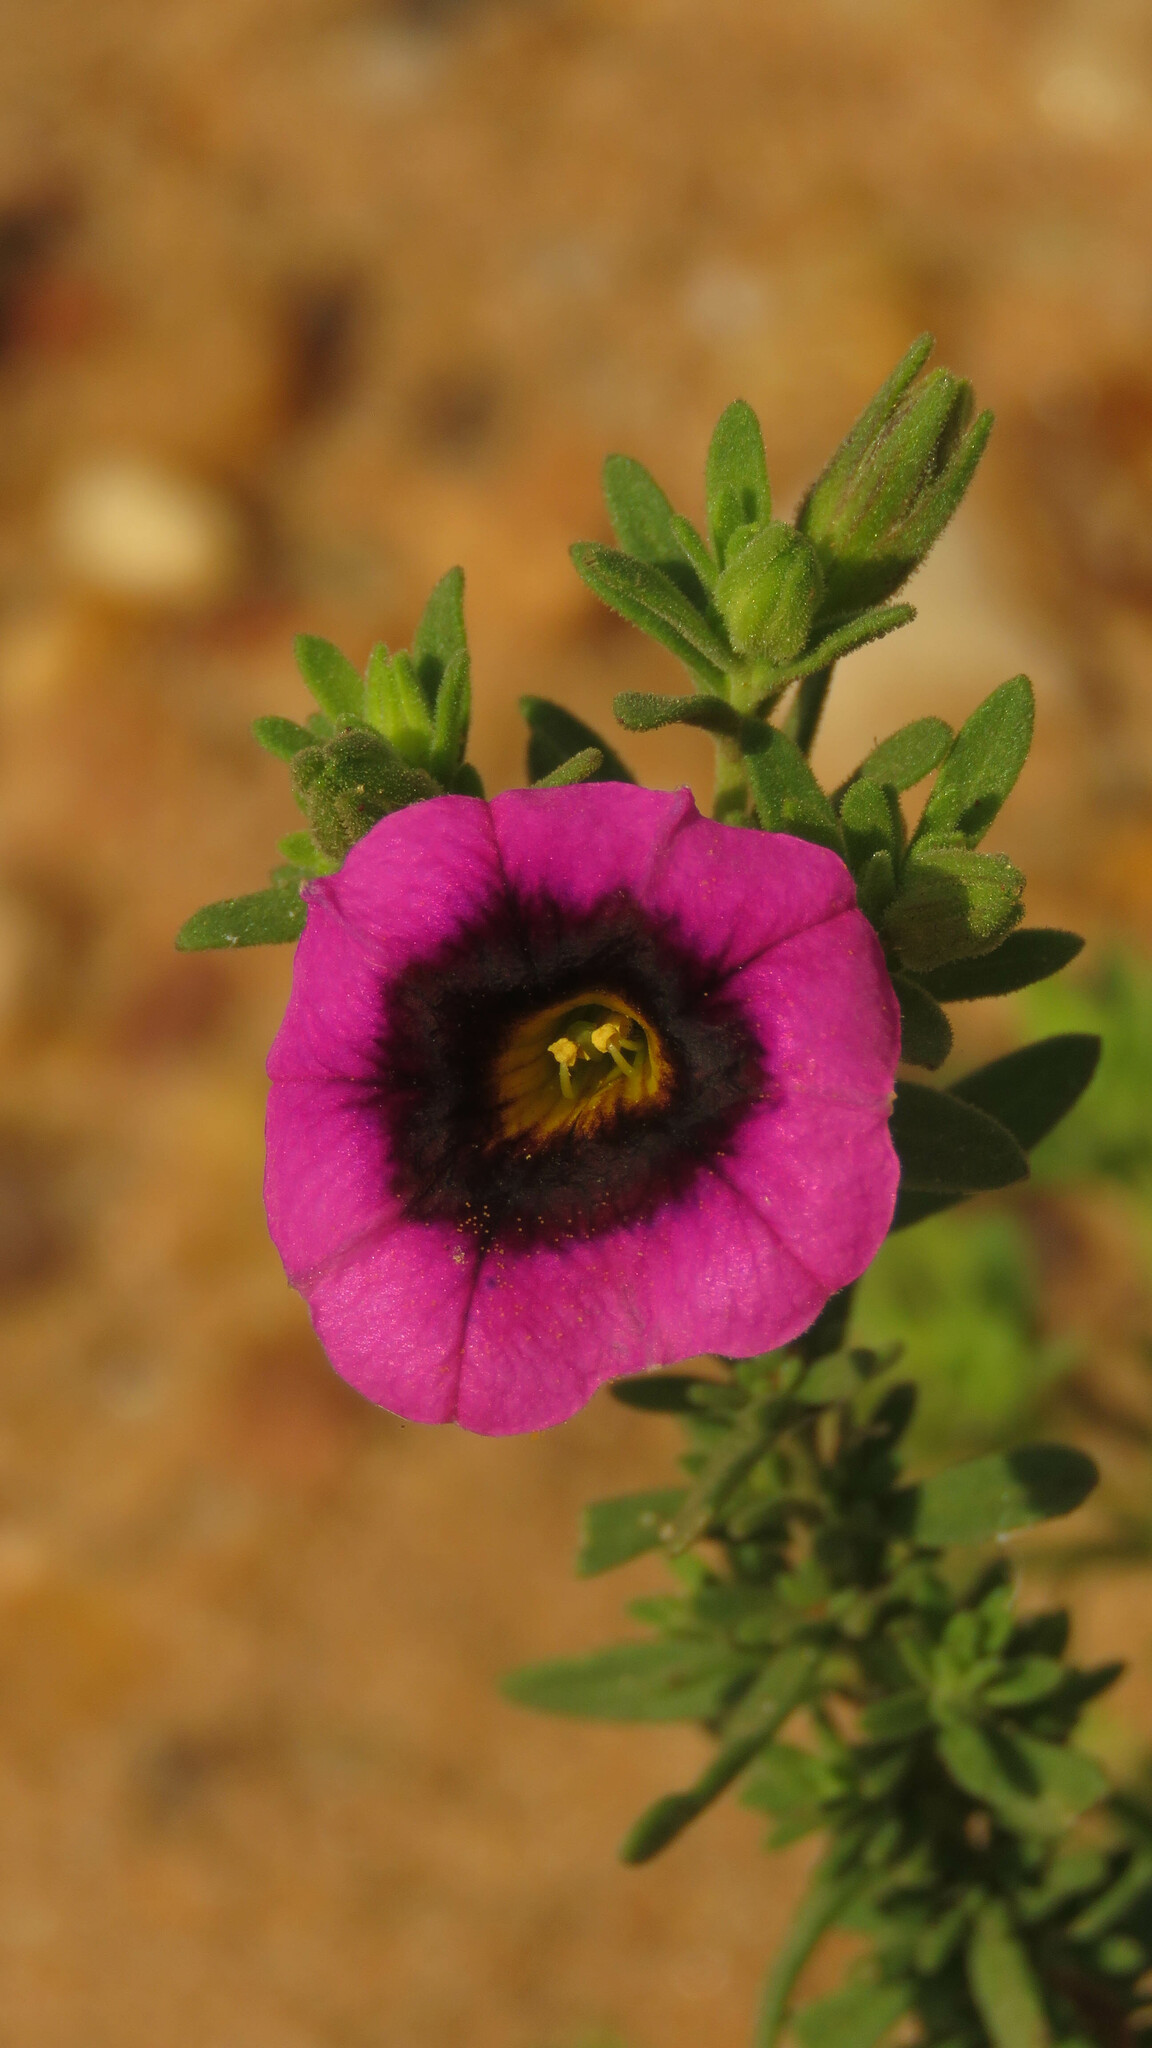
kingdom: Plantae
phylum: Tracheophyta
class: Magnoliopsida
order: Solanales
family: Solanaceae
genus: Calibrachoa
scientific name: Calibrachoa thymifolia
